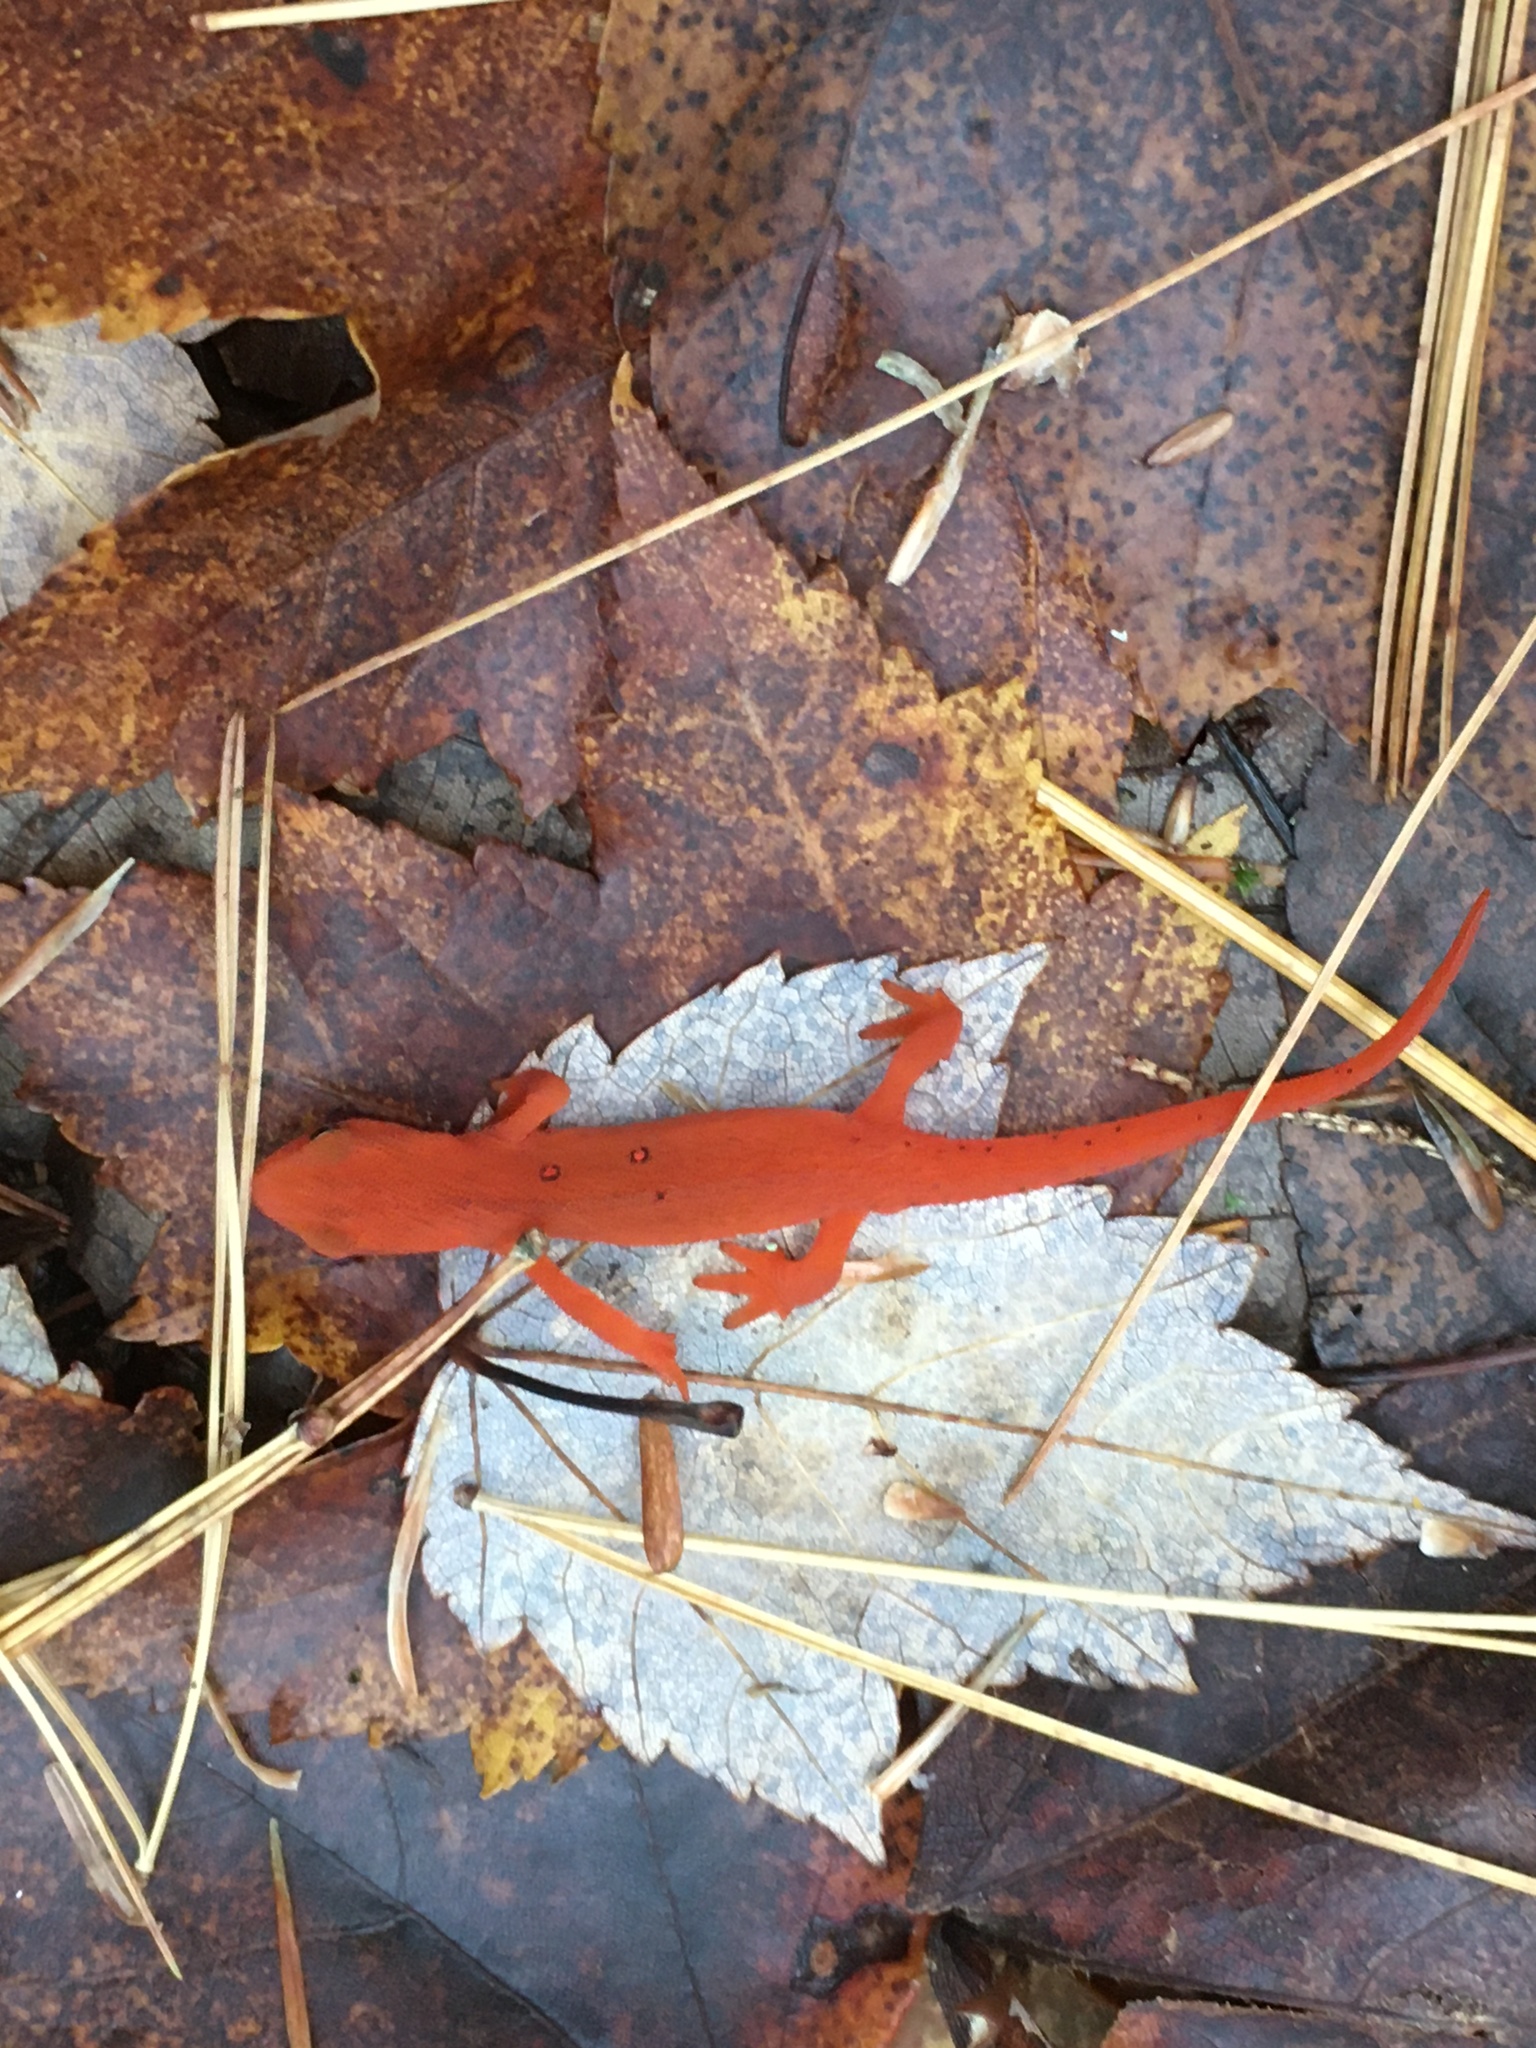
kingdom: Animalia
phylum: Chordata
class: Amphibia
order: Caudata
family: Salamandridae
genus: Notophthalmus
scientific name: Notophthalmus viridescens
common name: Eastern newt
